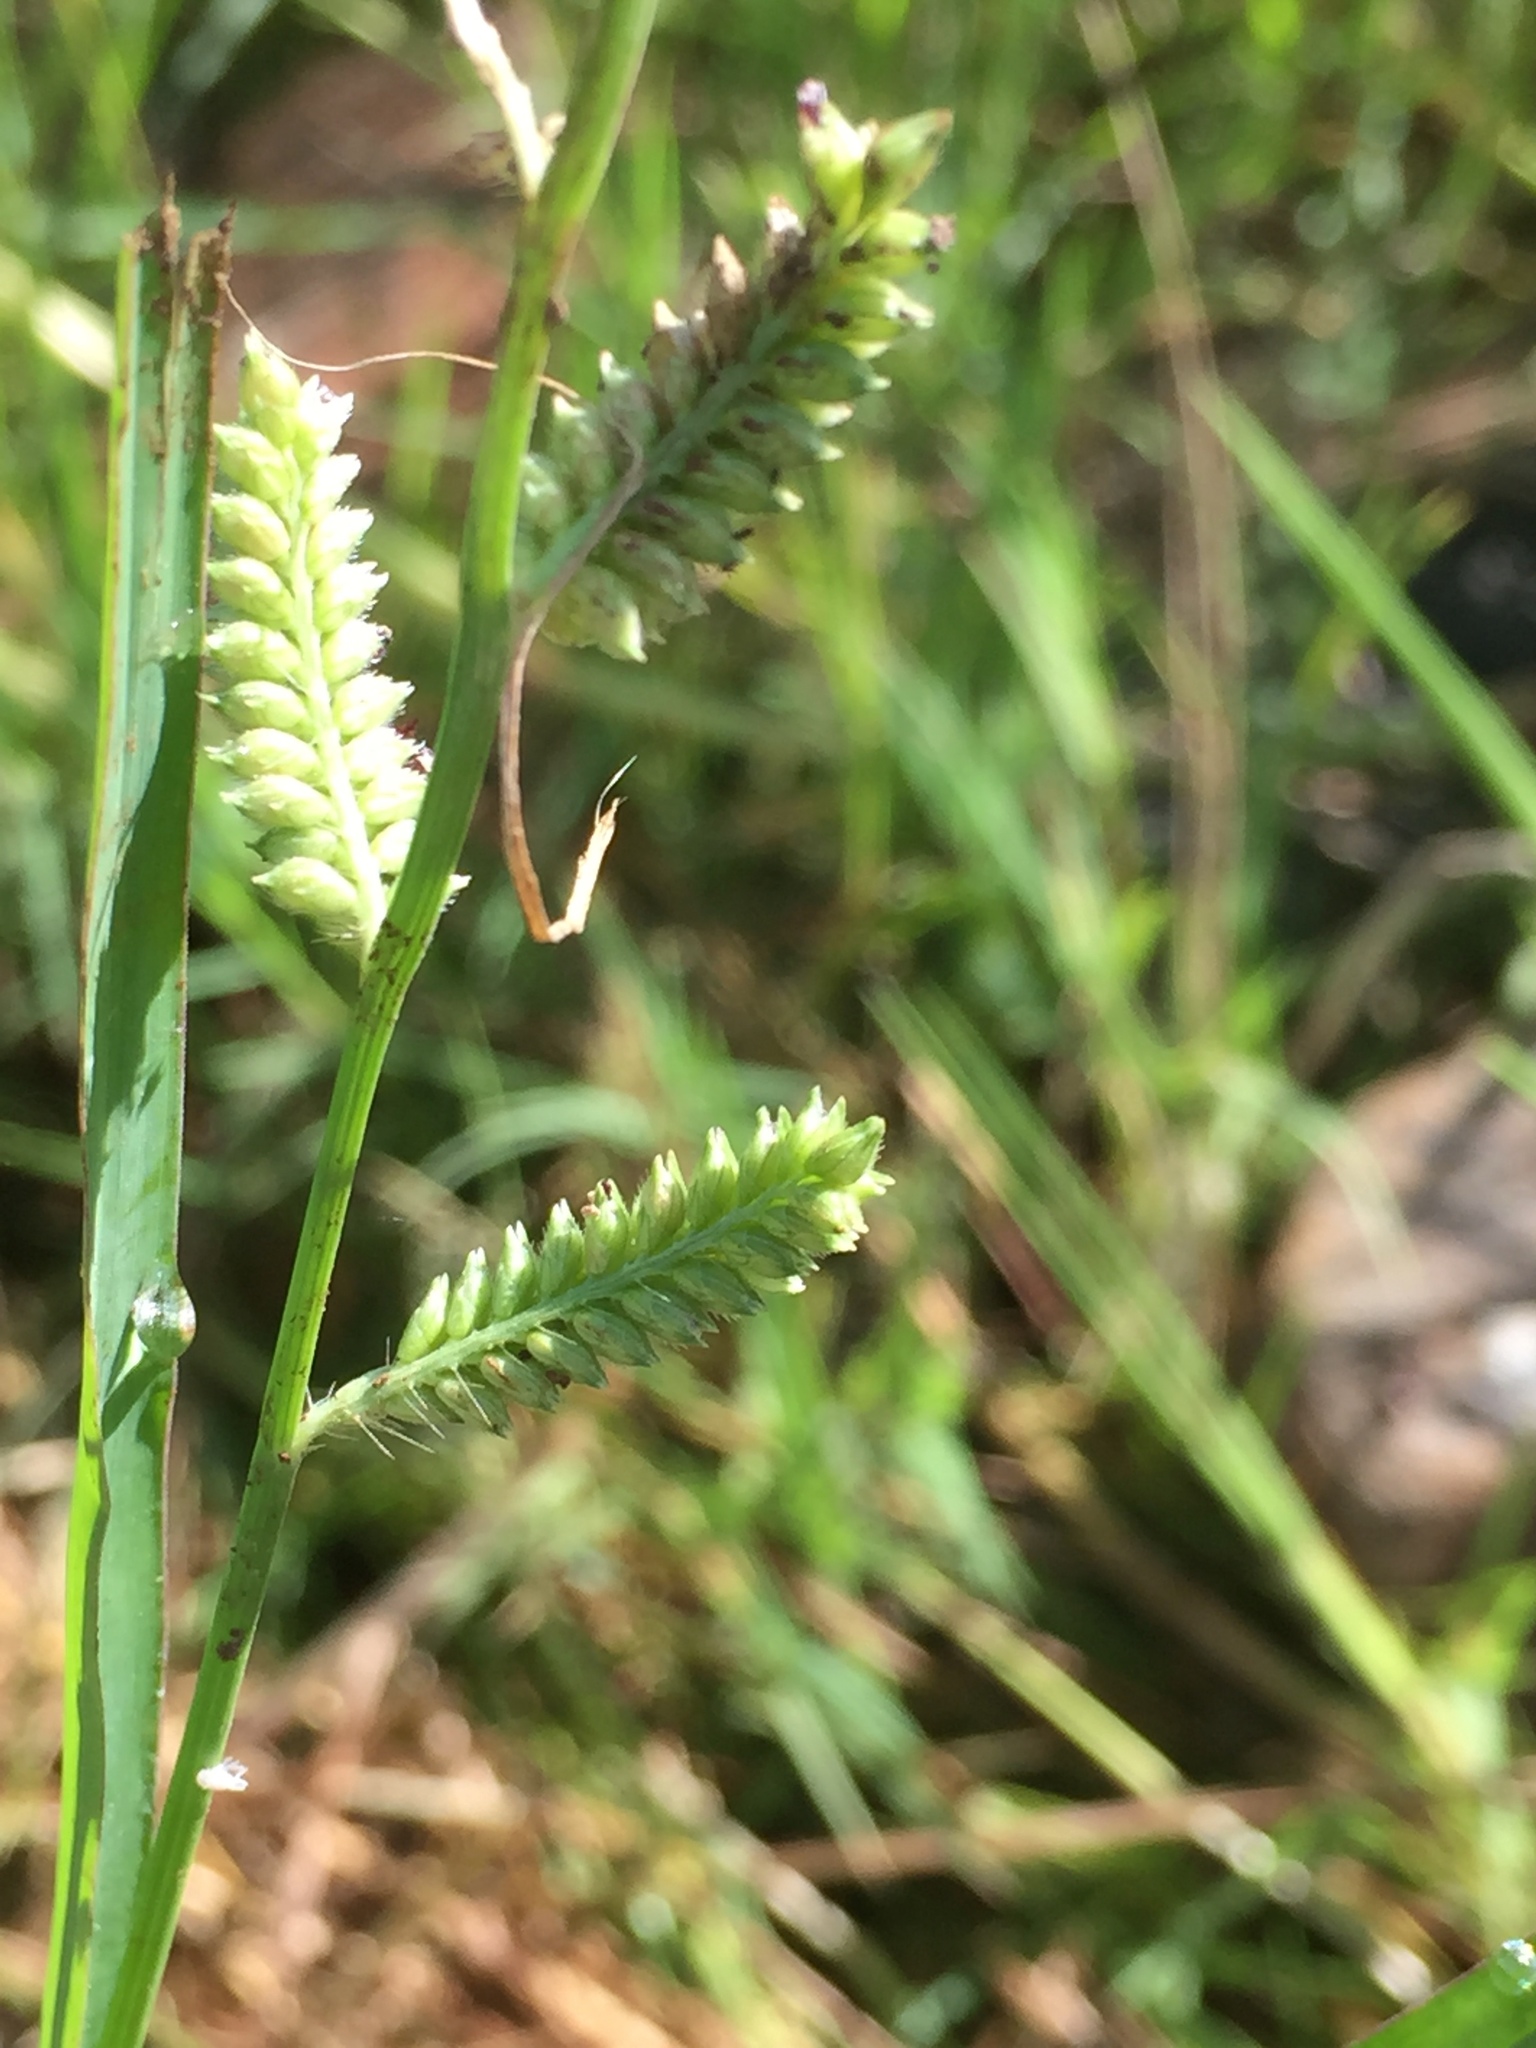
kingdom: Plantae
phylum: Tracheophyta
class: Liliopsida
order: Poales
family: Poaceae
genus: Echinochloa
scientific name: Echinochloa colonum
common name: Jungle rice
